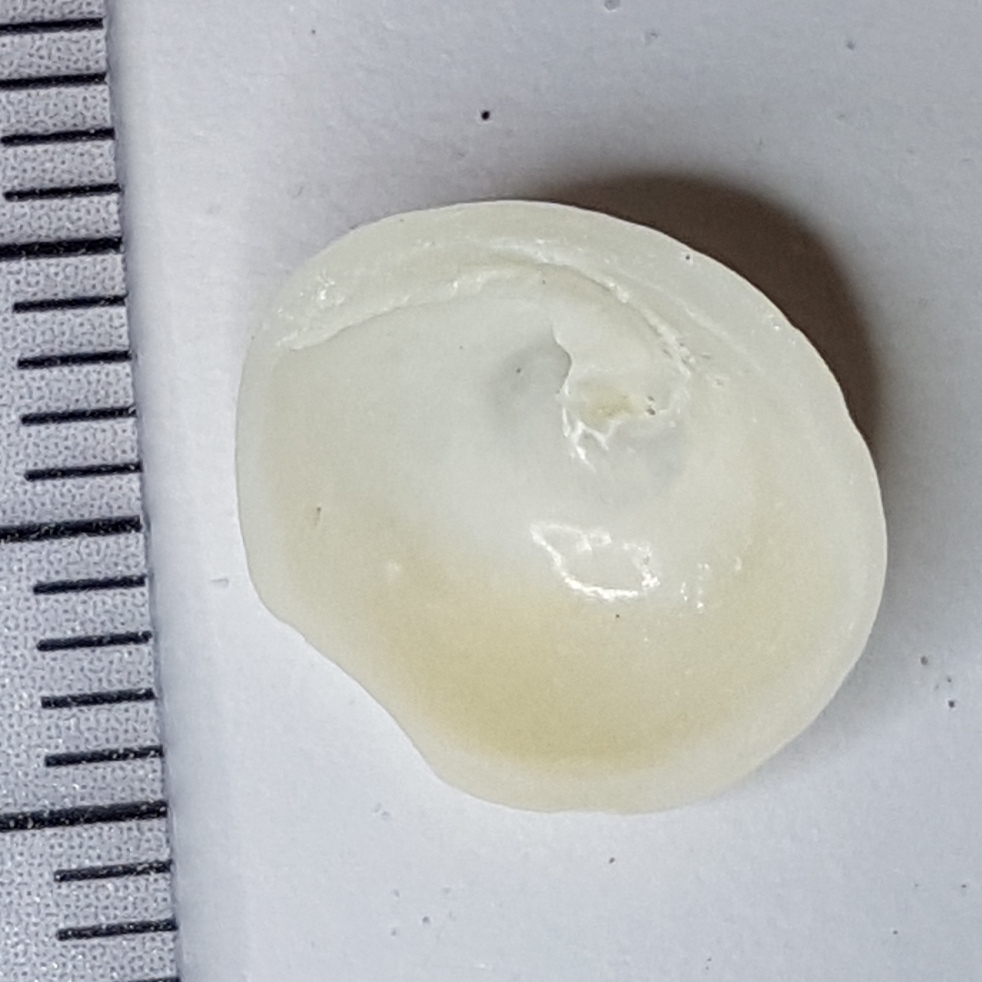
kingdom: Animalia
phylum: Mollusca
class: Gastropoda
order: Littorinimorpha
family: Calyptraeidae
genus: Calyptraea
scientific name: Calyptraea chinensis
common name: Chinaman's hat
